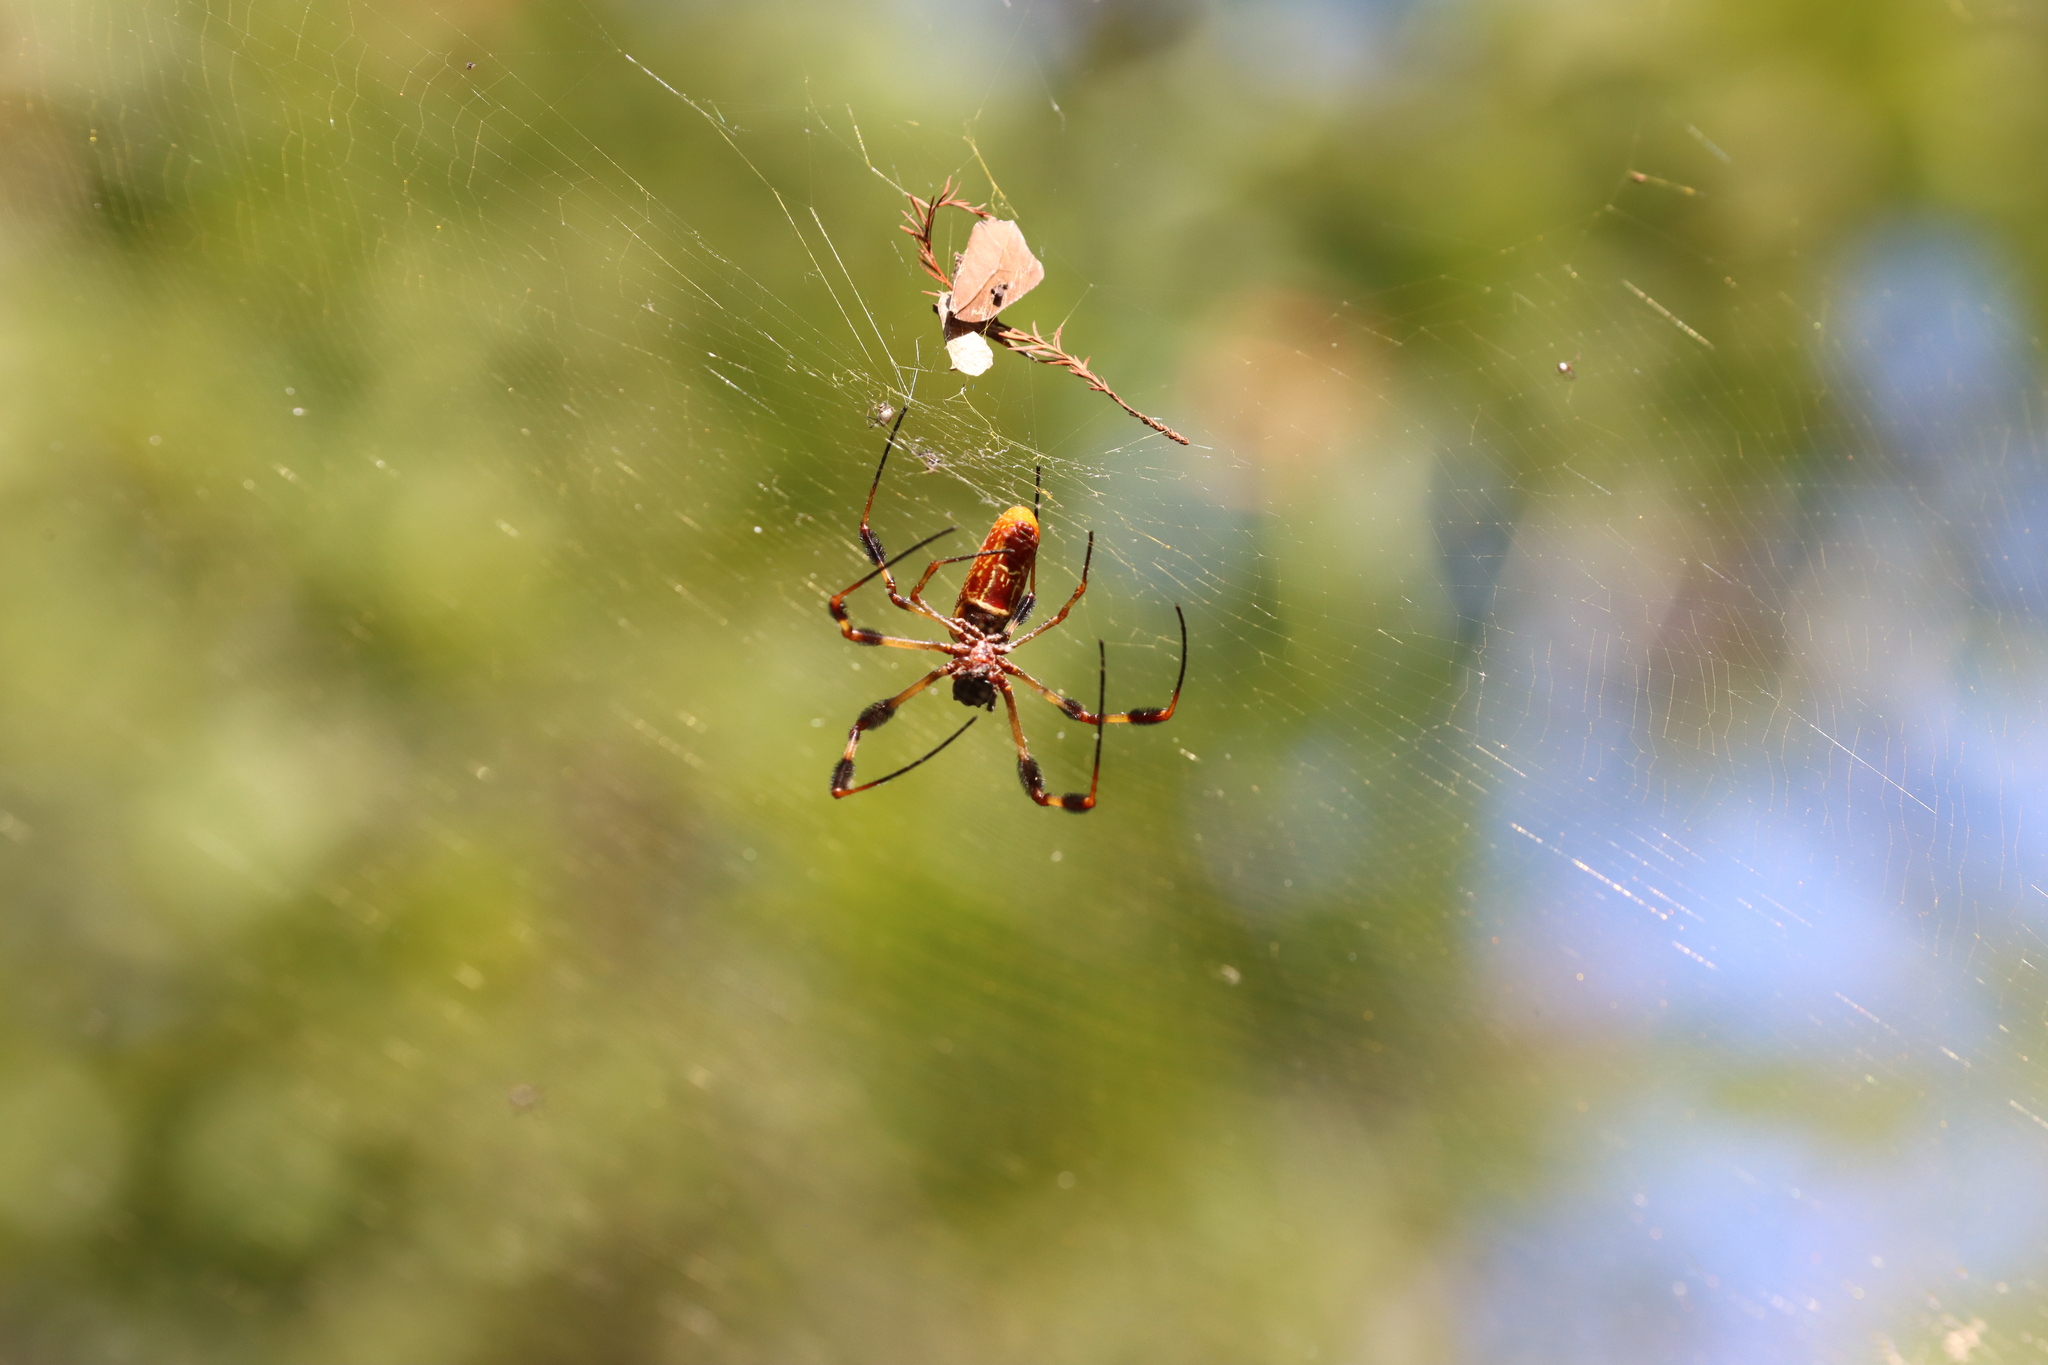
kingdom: Animalia
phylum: Arthropoda
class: Arachnida
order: Araneae
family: Araneidae
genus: Trichonephila
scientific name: Trichonephila clavipes
